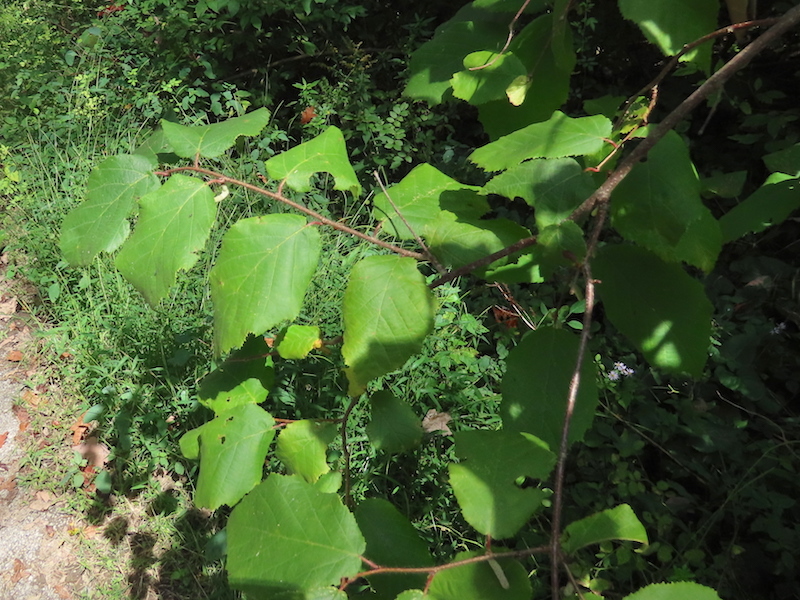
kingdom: Plantae
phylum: Tracheophyta
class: Magnoliopsida
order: Fagales
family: Betulaceae
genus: Corylus
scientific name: Corylus americana
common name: American hazel
